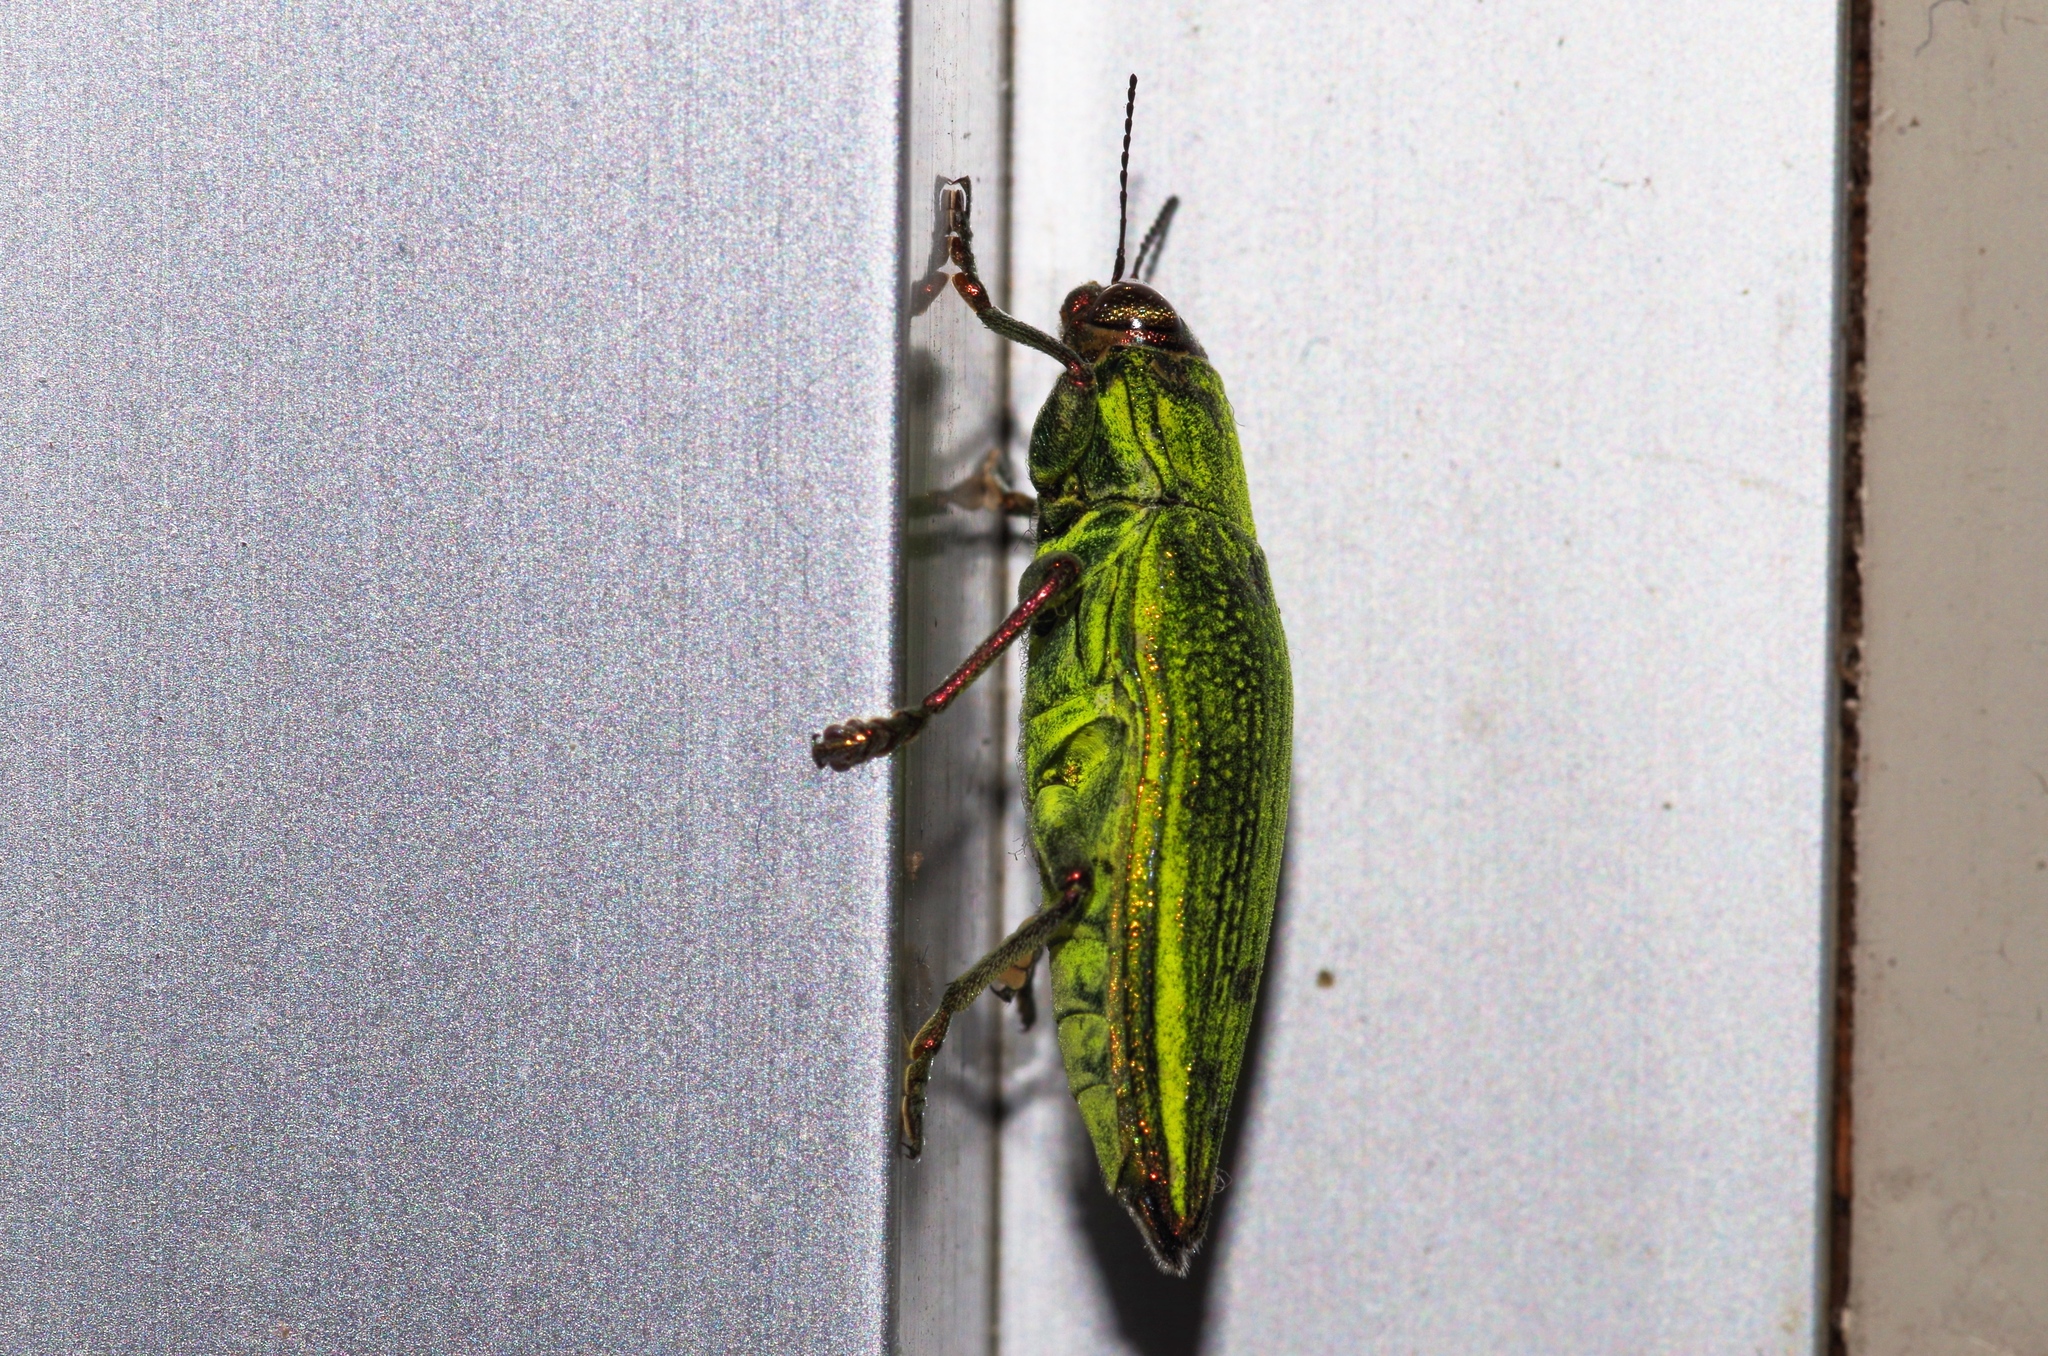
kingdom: Animalia
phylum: Arthropoda
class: Insecta
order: Coleoptera
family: Buprestidae
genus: Chrysodema
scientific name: Chrysodema dalmanni
